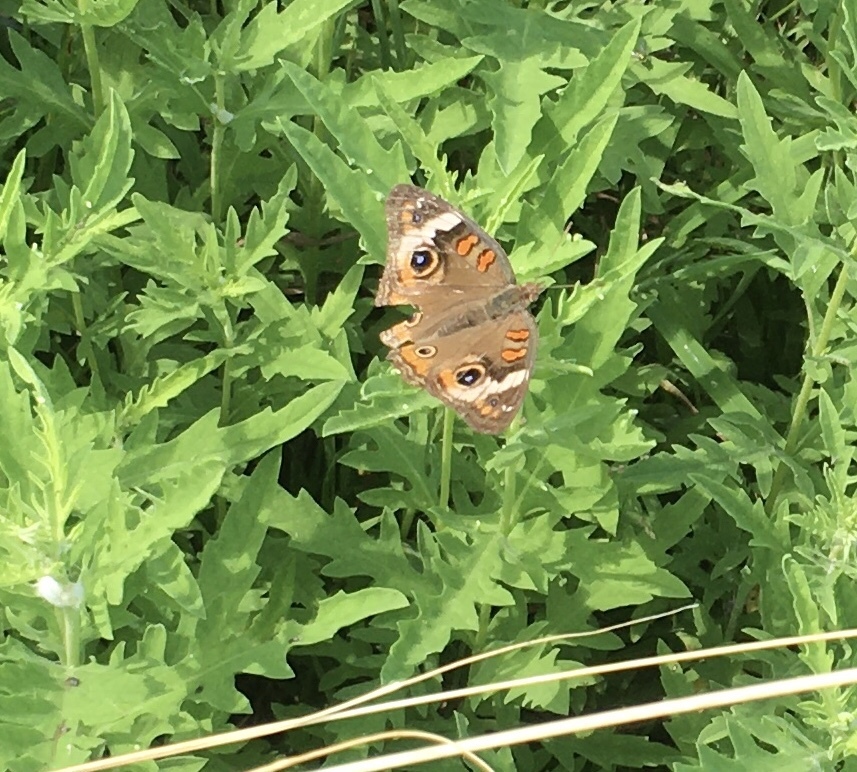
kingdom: Animalia
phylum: Arthropoda
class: Insecta
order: Lepidoptera
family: Nymphalidae
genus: Junonia
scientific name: Junonia coenia
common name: Common buckeye
